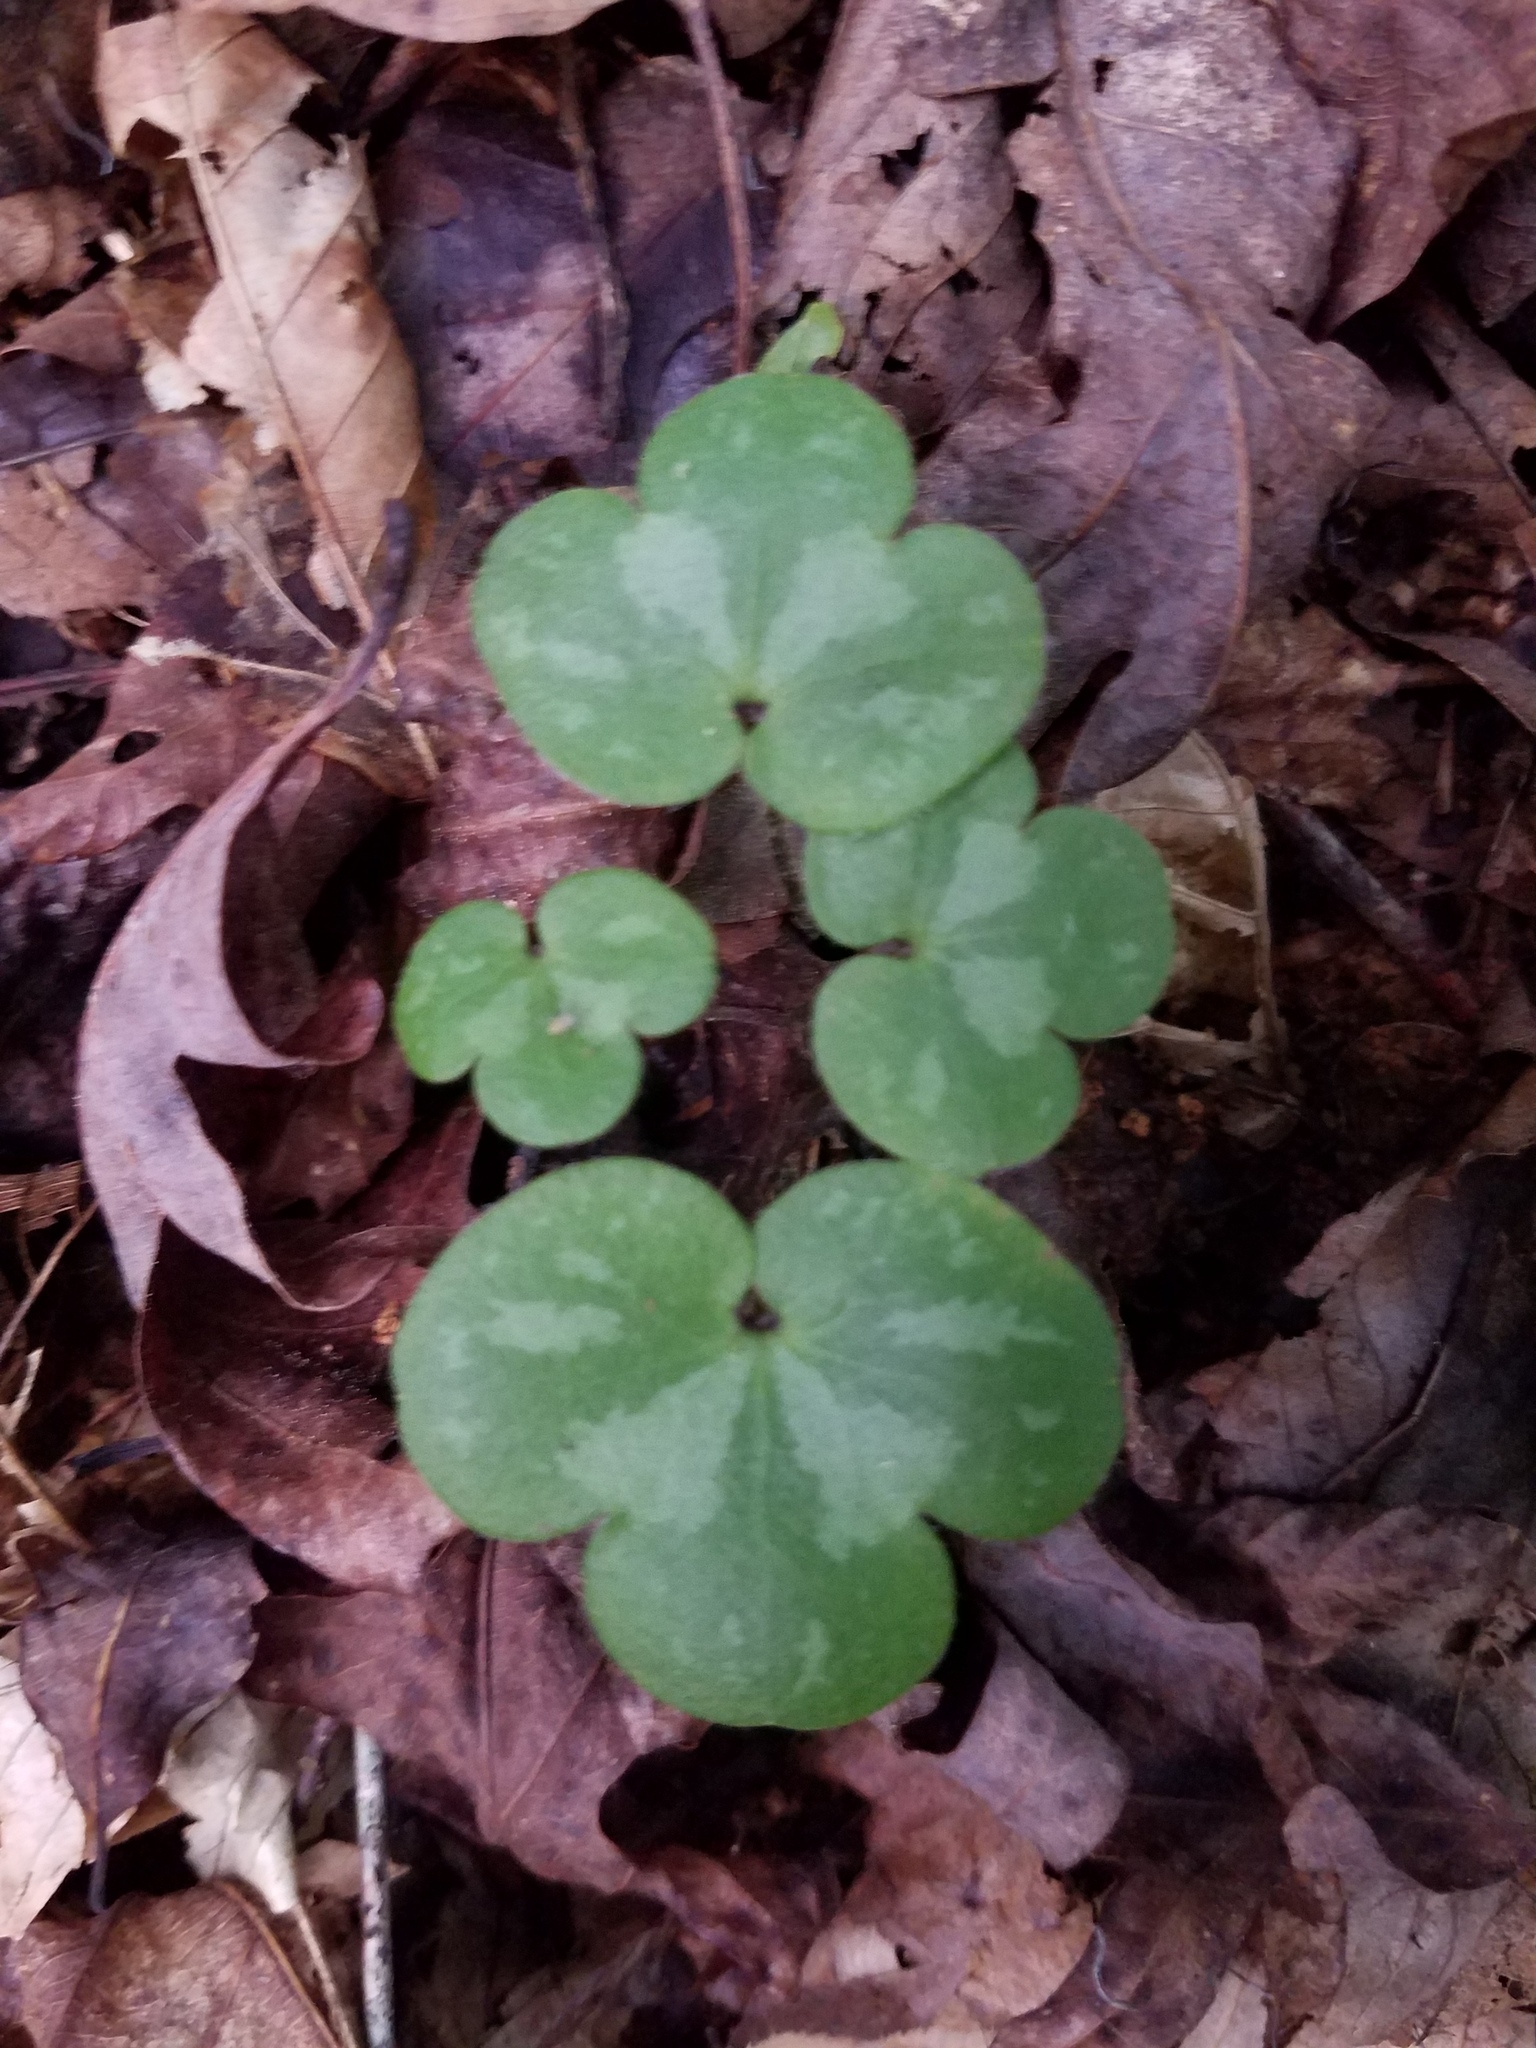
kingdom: Plantae
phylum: Tracheophyta
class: Magnoliopsida
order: Ranunculales
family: Ranunculaceae
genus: Hepatica
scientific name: Hepatica americana
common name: American hepatica
